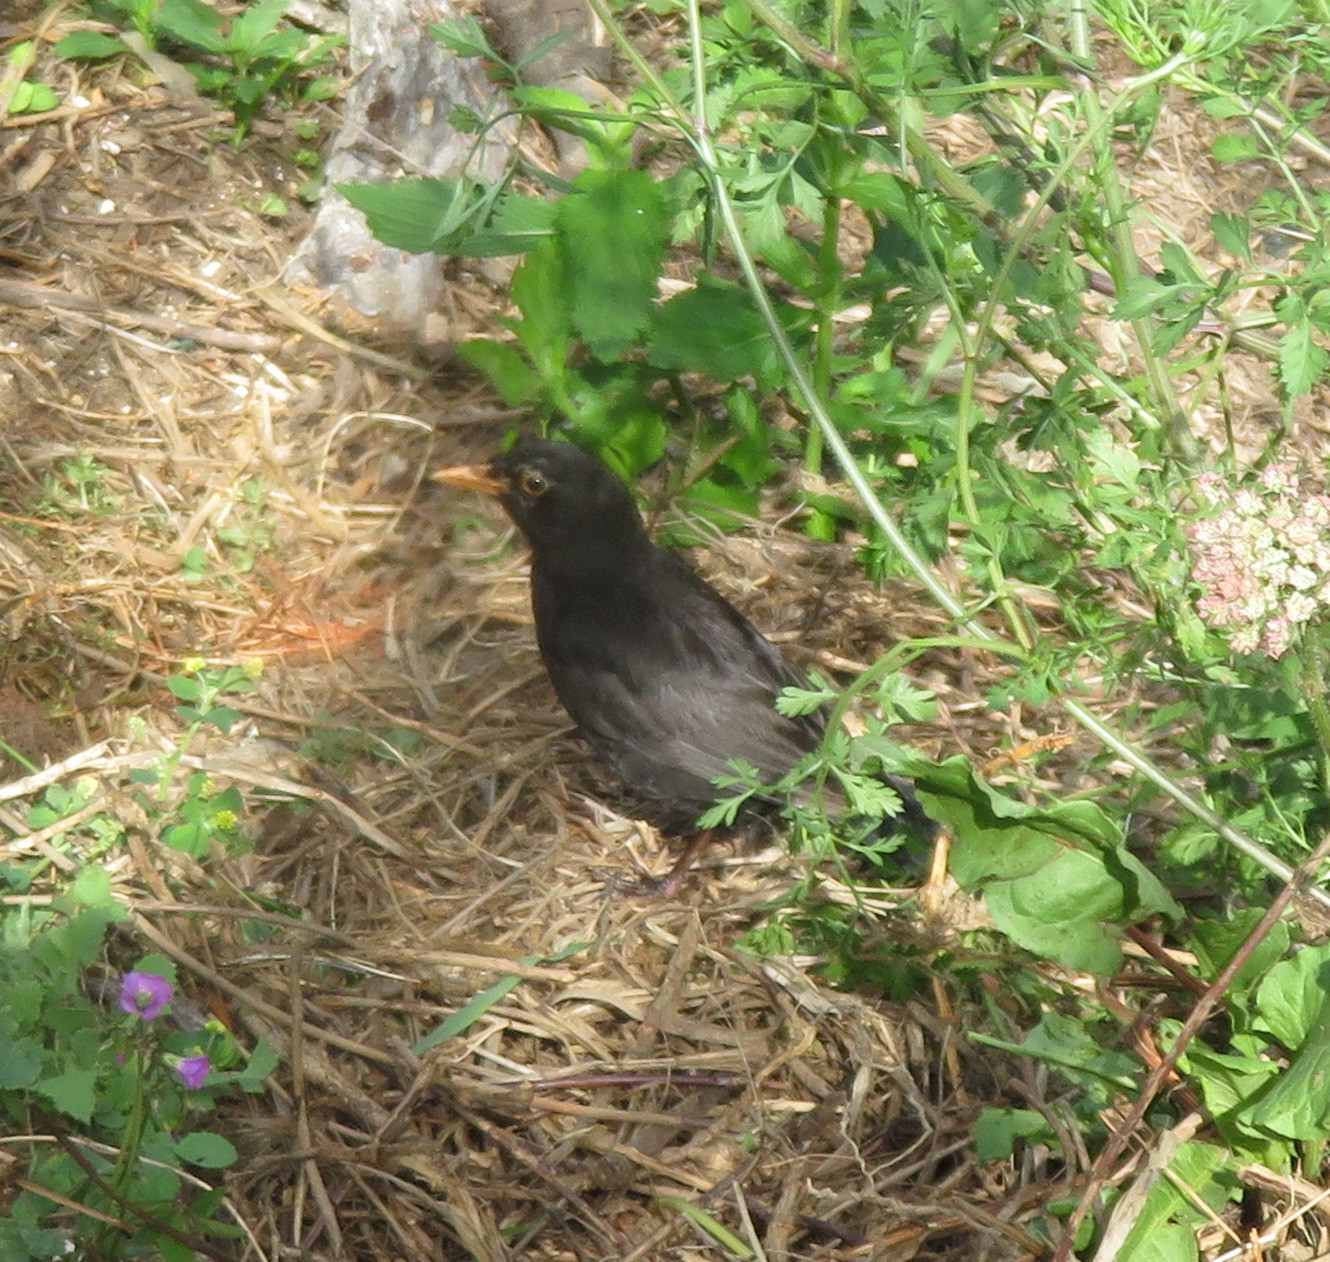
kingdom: Animalia
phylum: Chordata
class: Aves
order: Passeriformes
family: Turdidae
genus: Turdus
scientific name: Turdus merula
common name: Common blackbird
